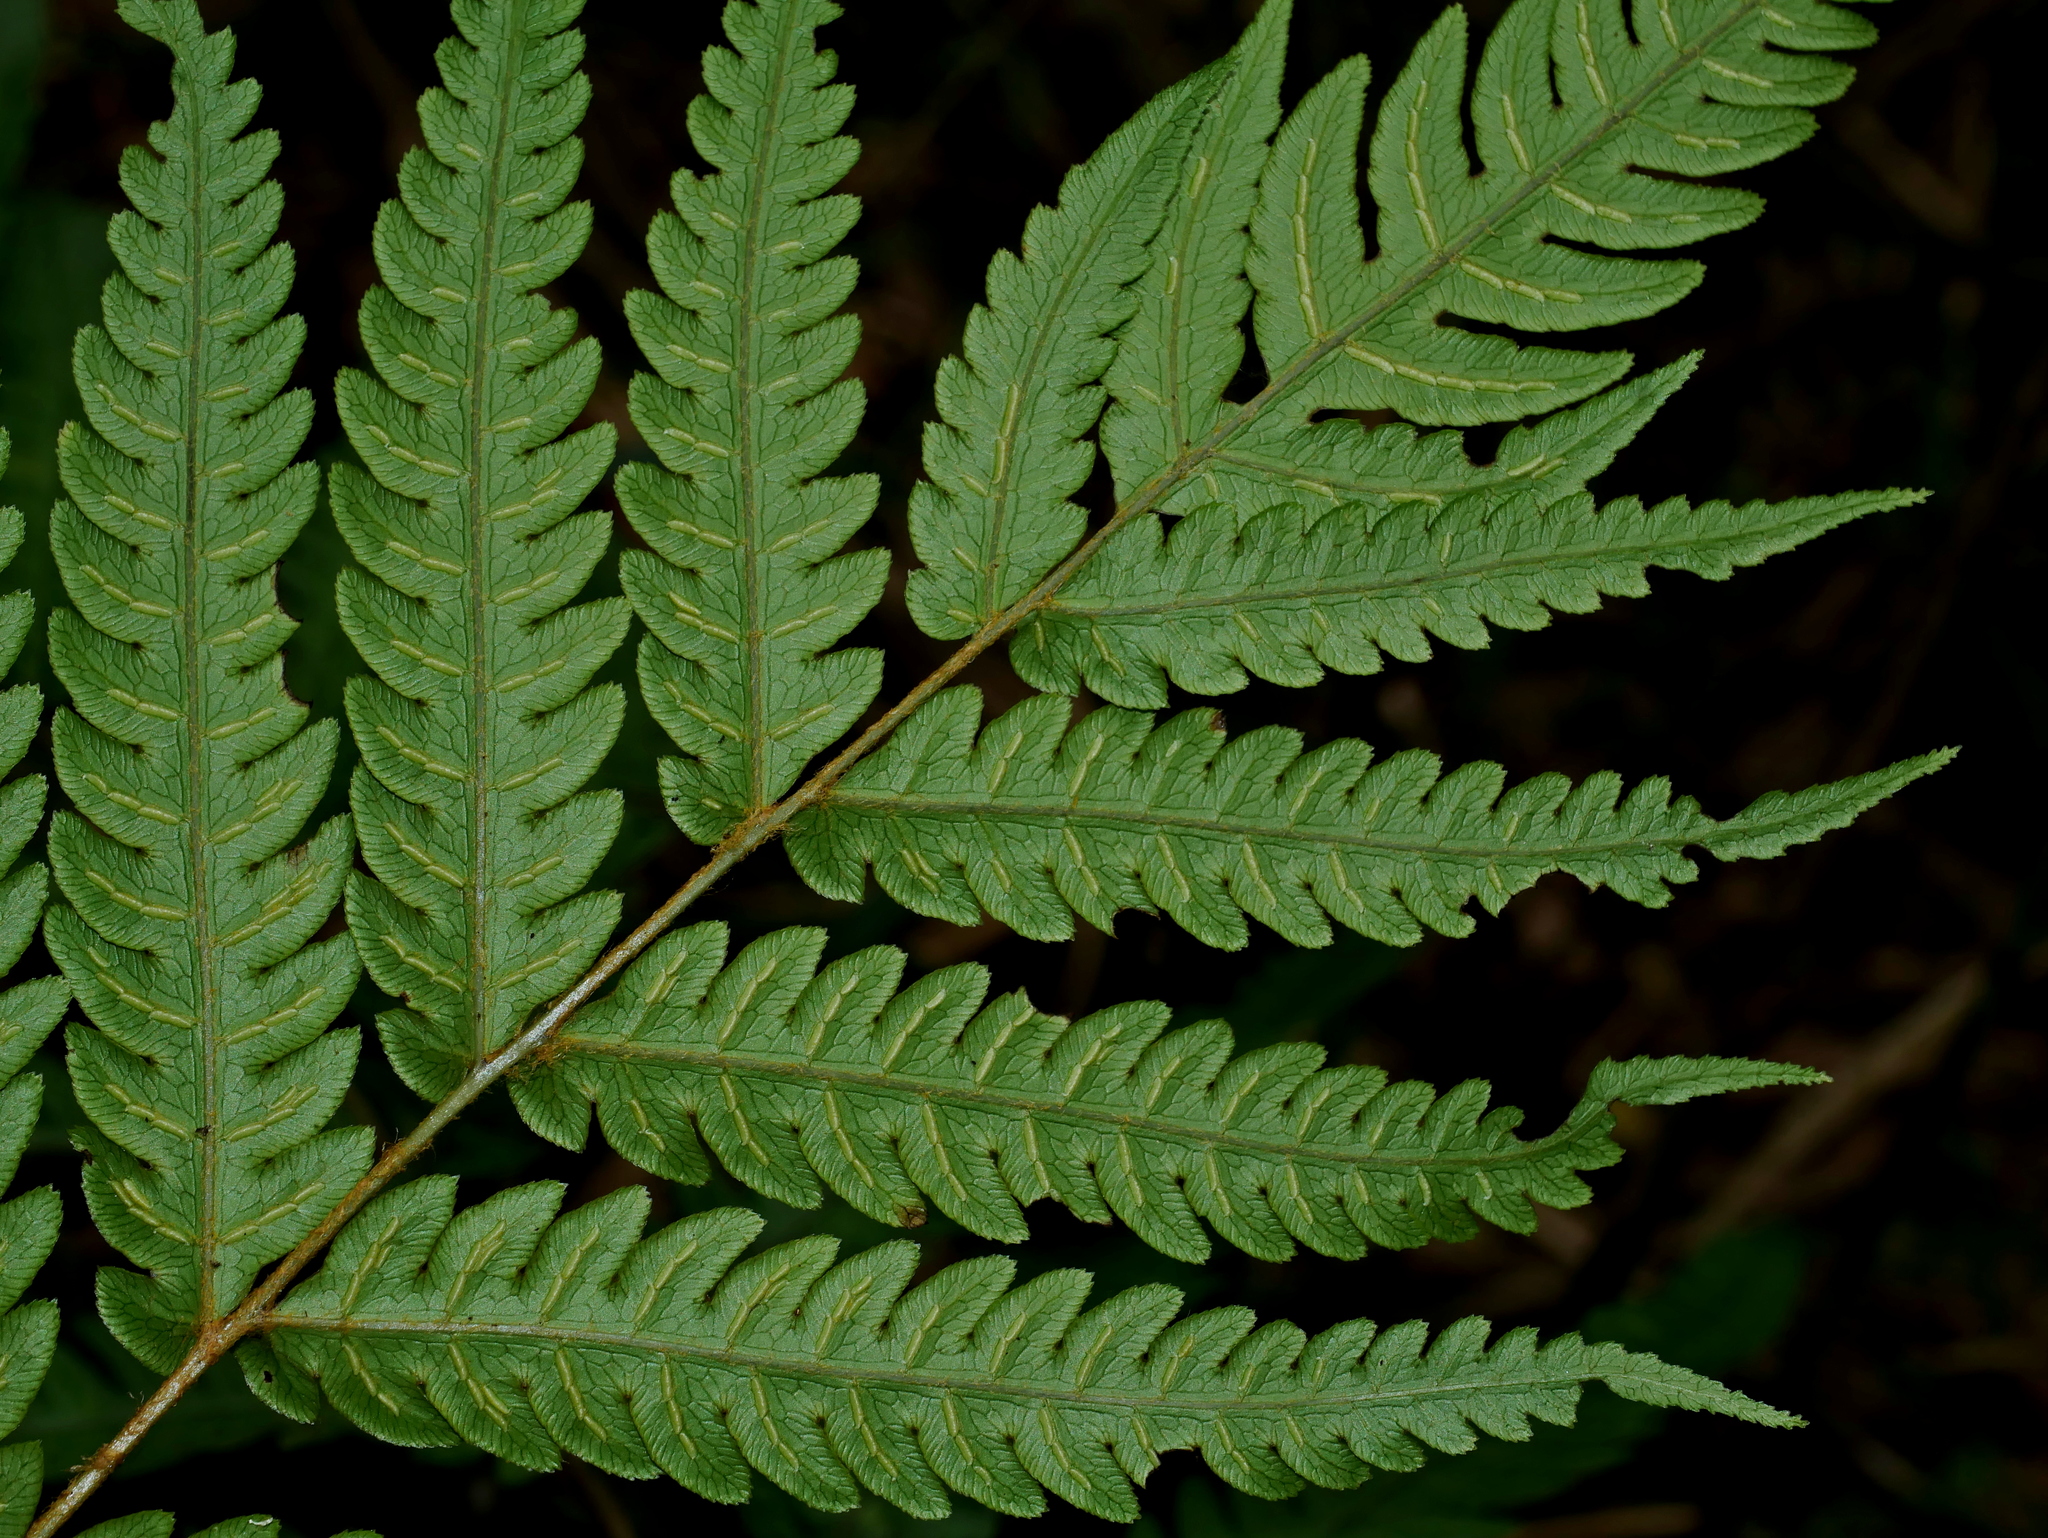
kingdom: Plantae
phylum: Tracheophyta
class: Polypodiopsida
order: Polypodiales
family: Blechnaceae
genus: Woodwardia
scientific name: Woodwardia japonica
